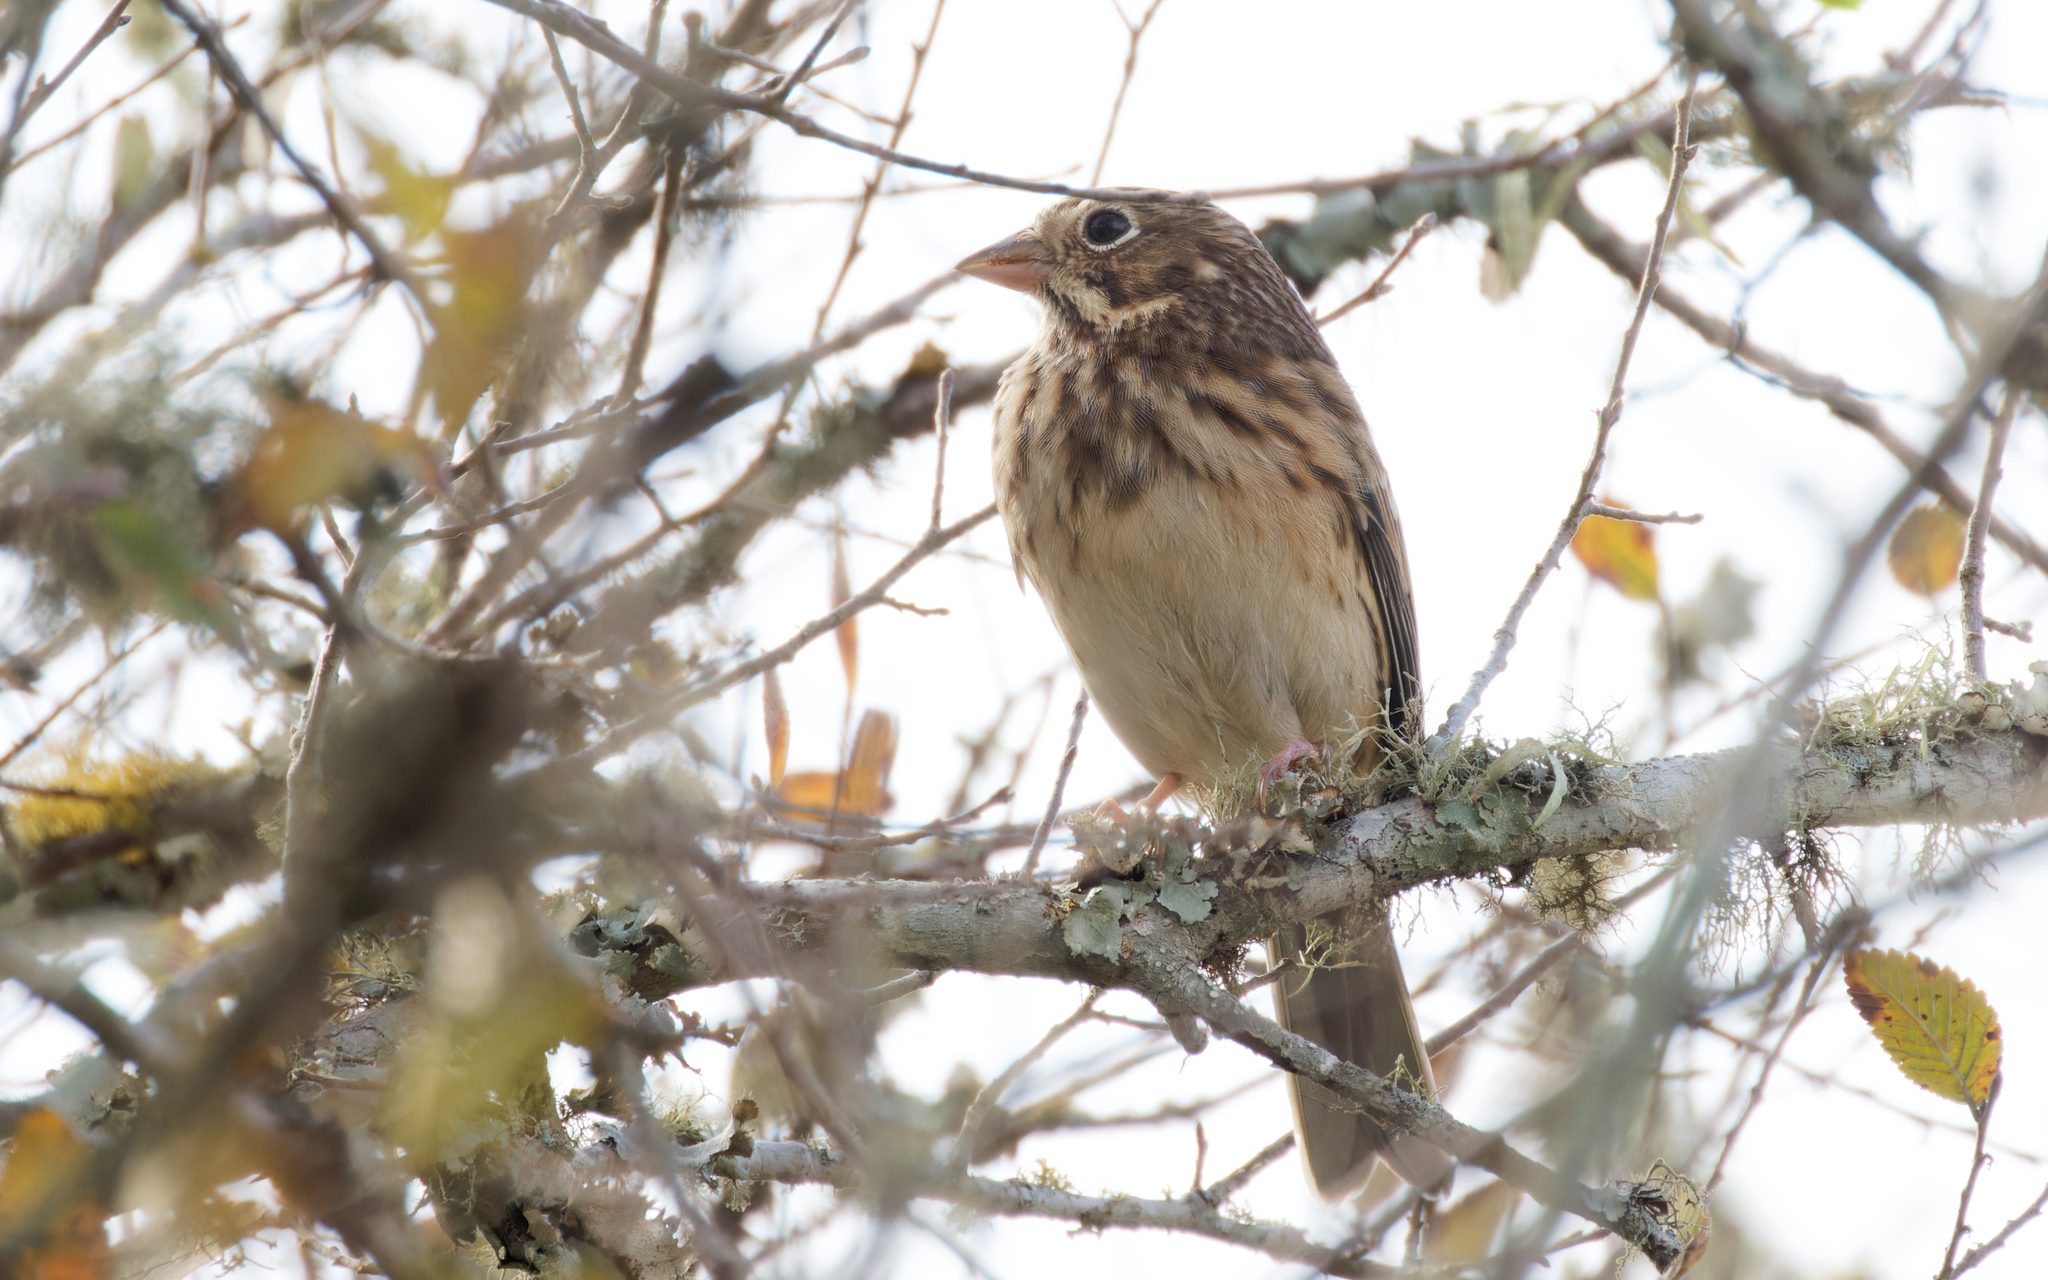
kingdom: Animalia
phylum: Chordata
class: Aves
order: Passeriformes
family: Passerellidae
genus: Pooecetes
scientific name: Pooecetes gramineus
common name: Vesper sparrow
